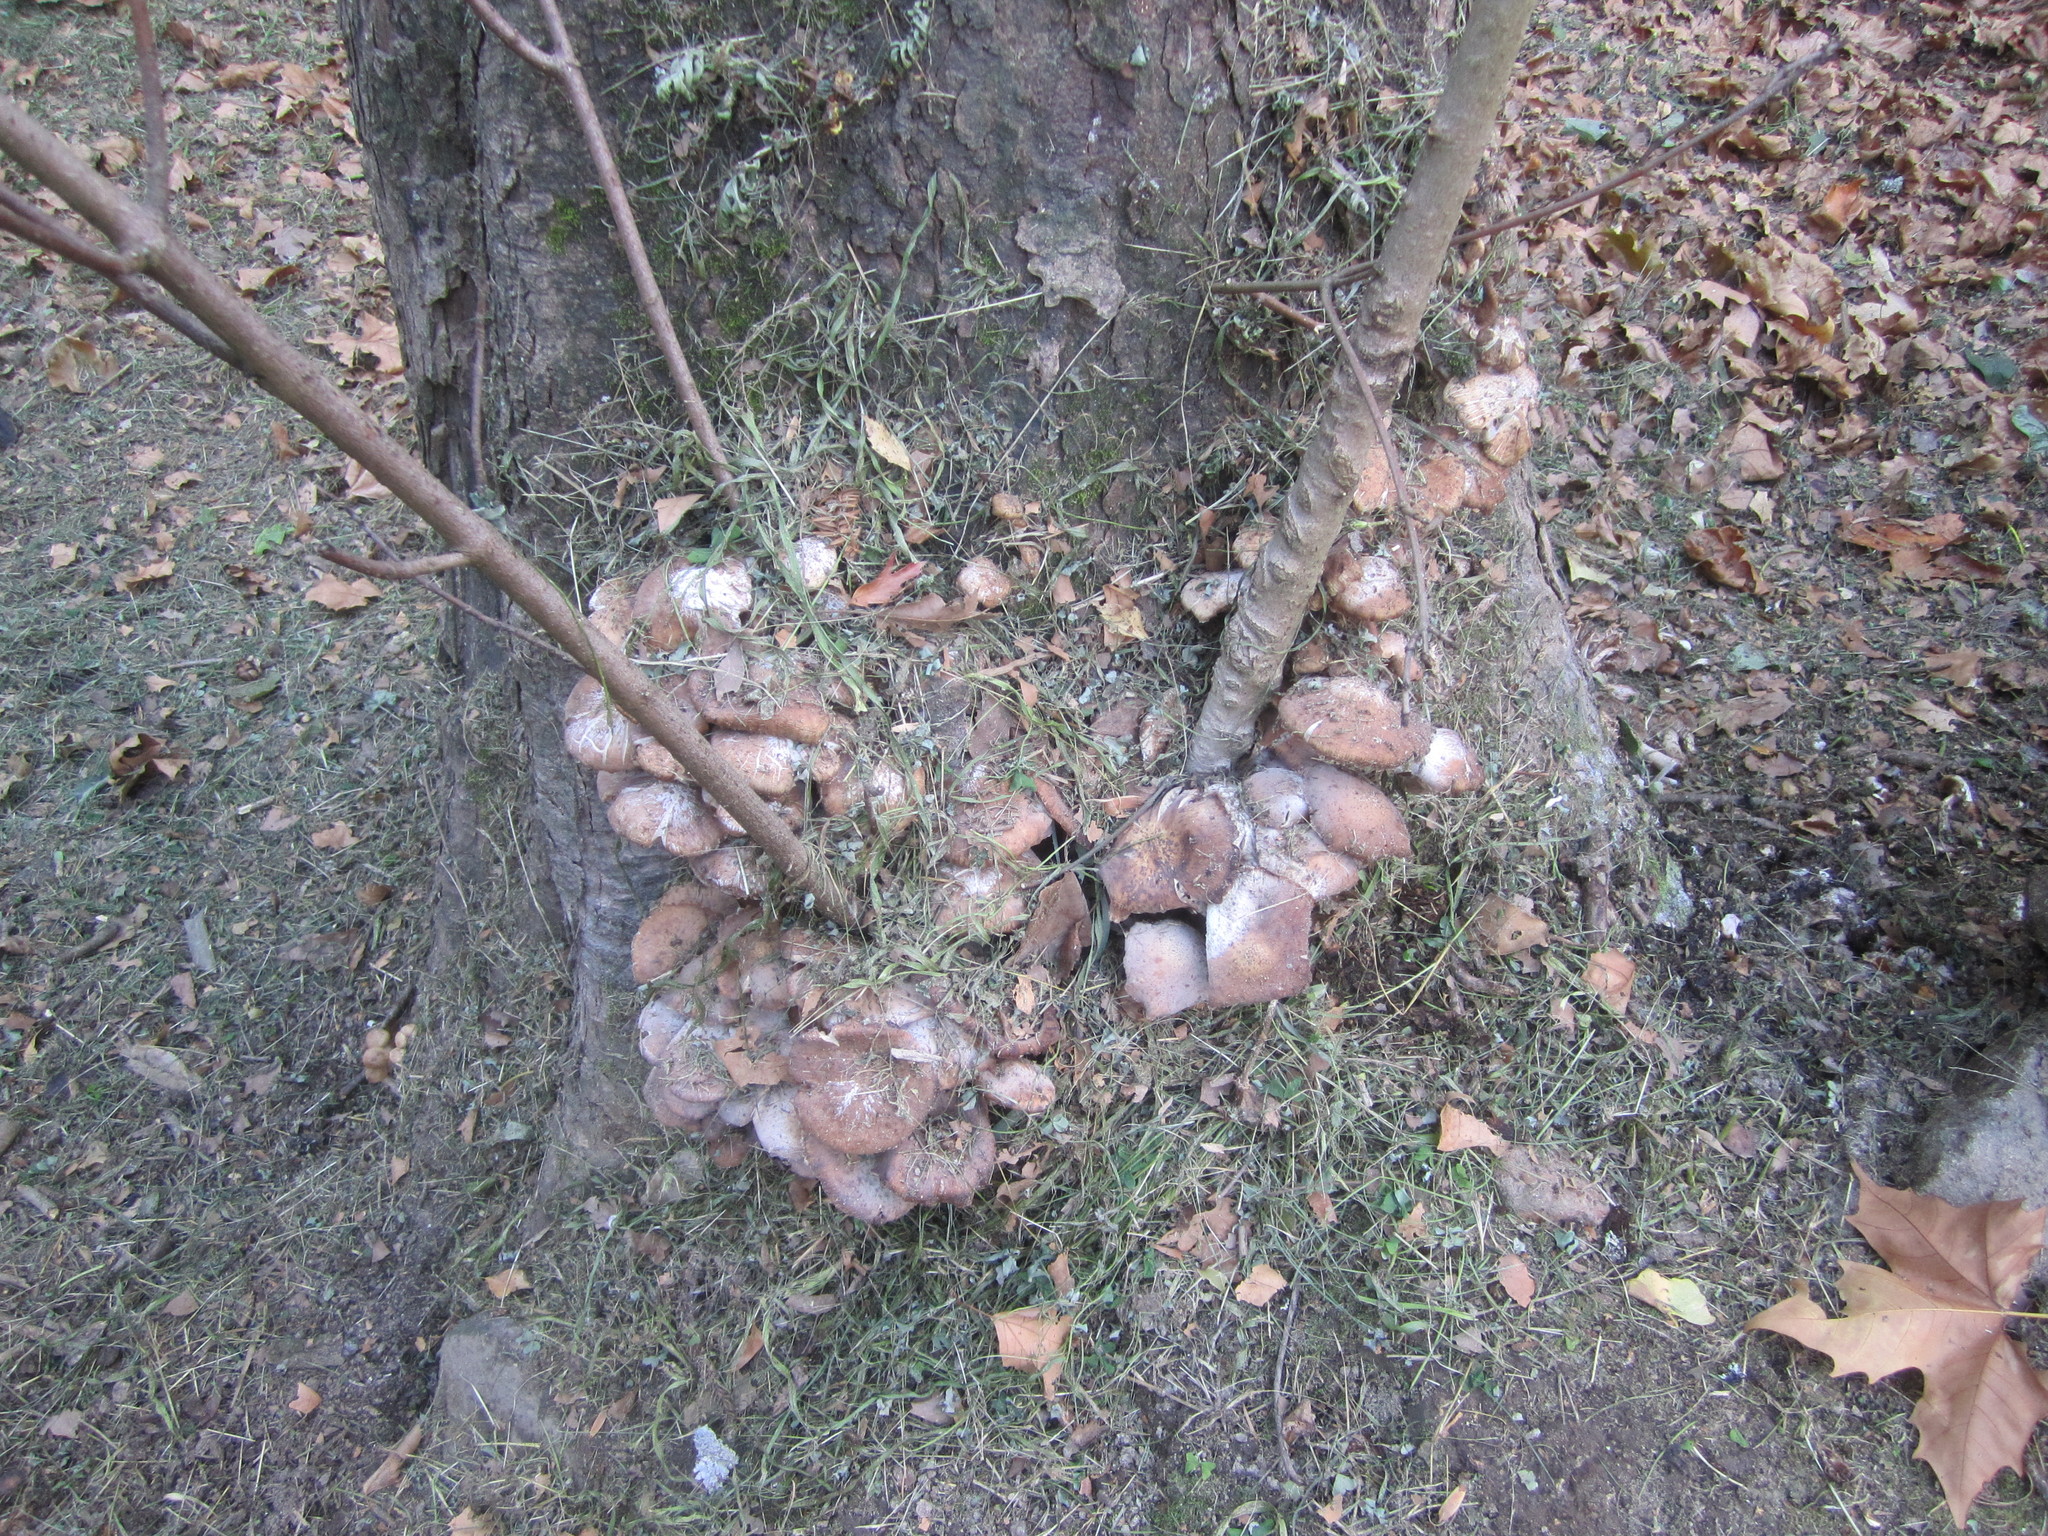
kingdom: Fungi
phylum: Basidiomycota
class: Agaricomycetes
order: Agaricales
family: Physalacriaceae
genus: Armillaria
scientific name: Armillaria
